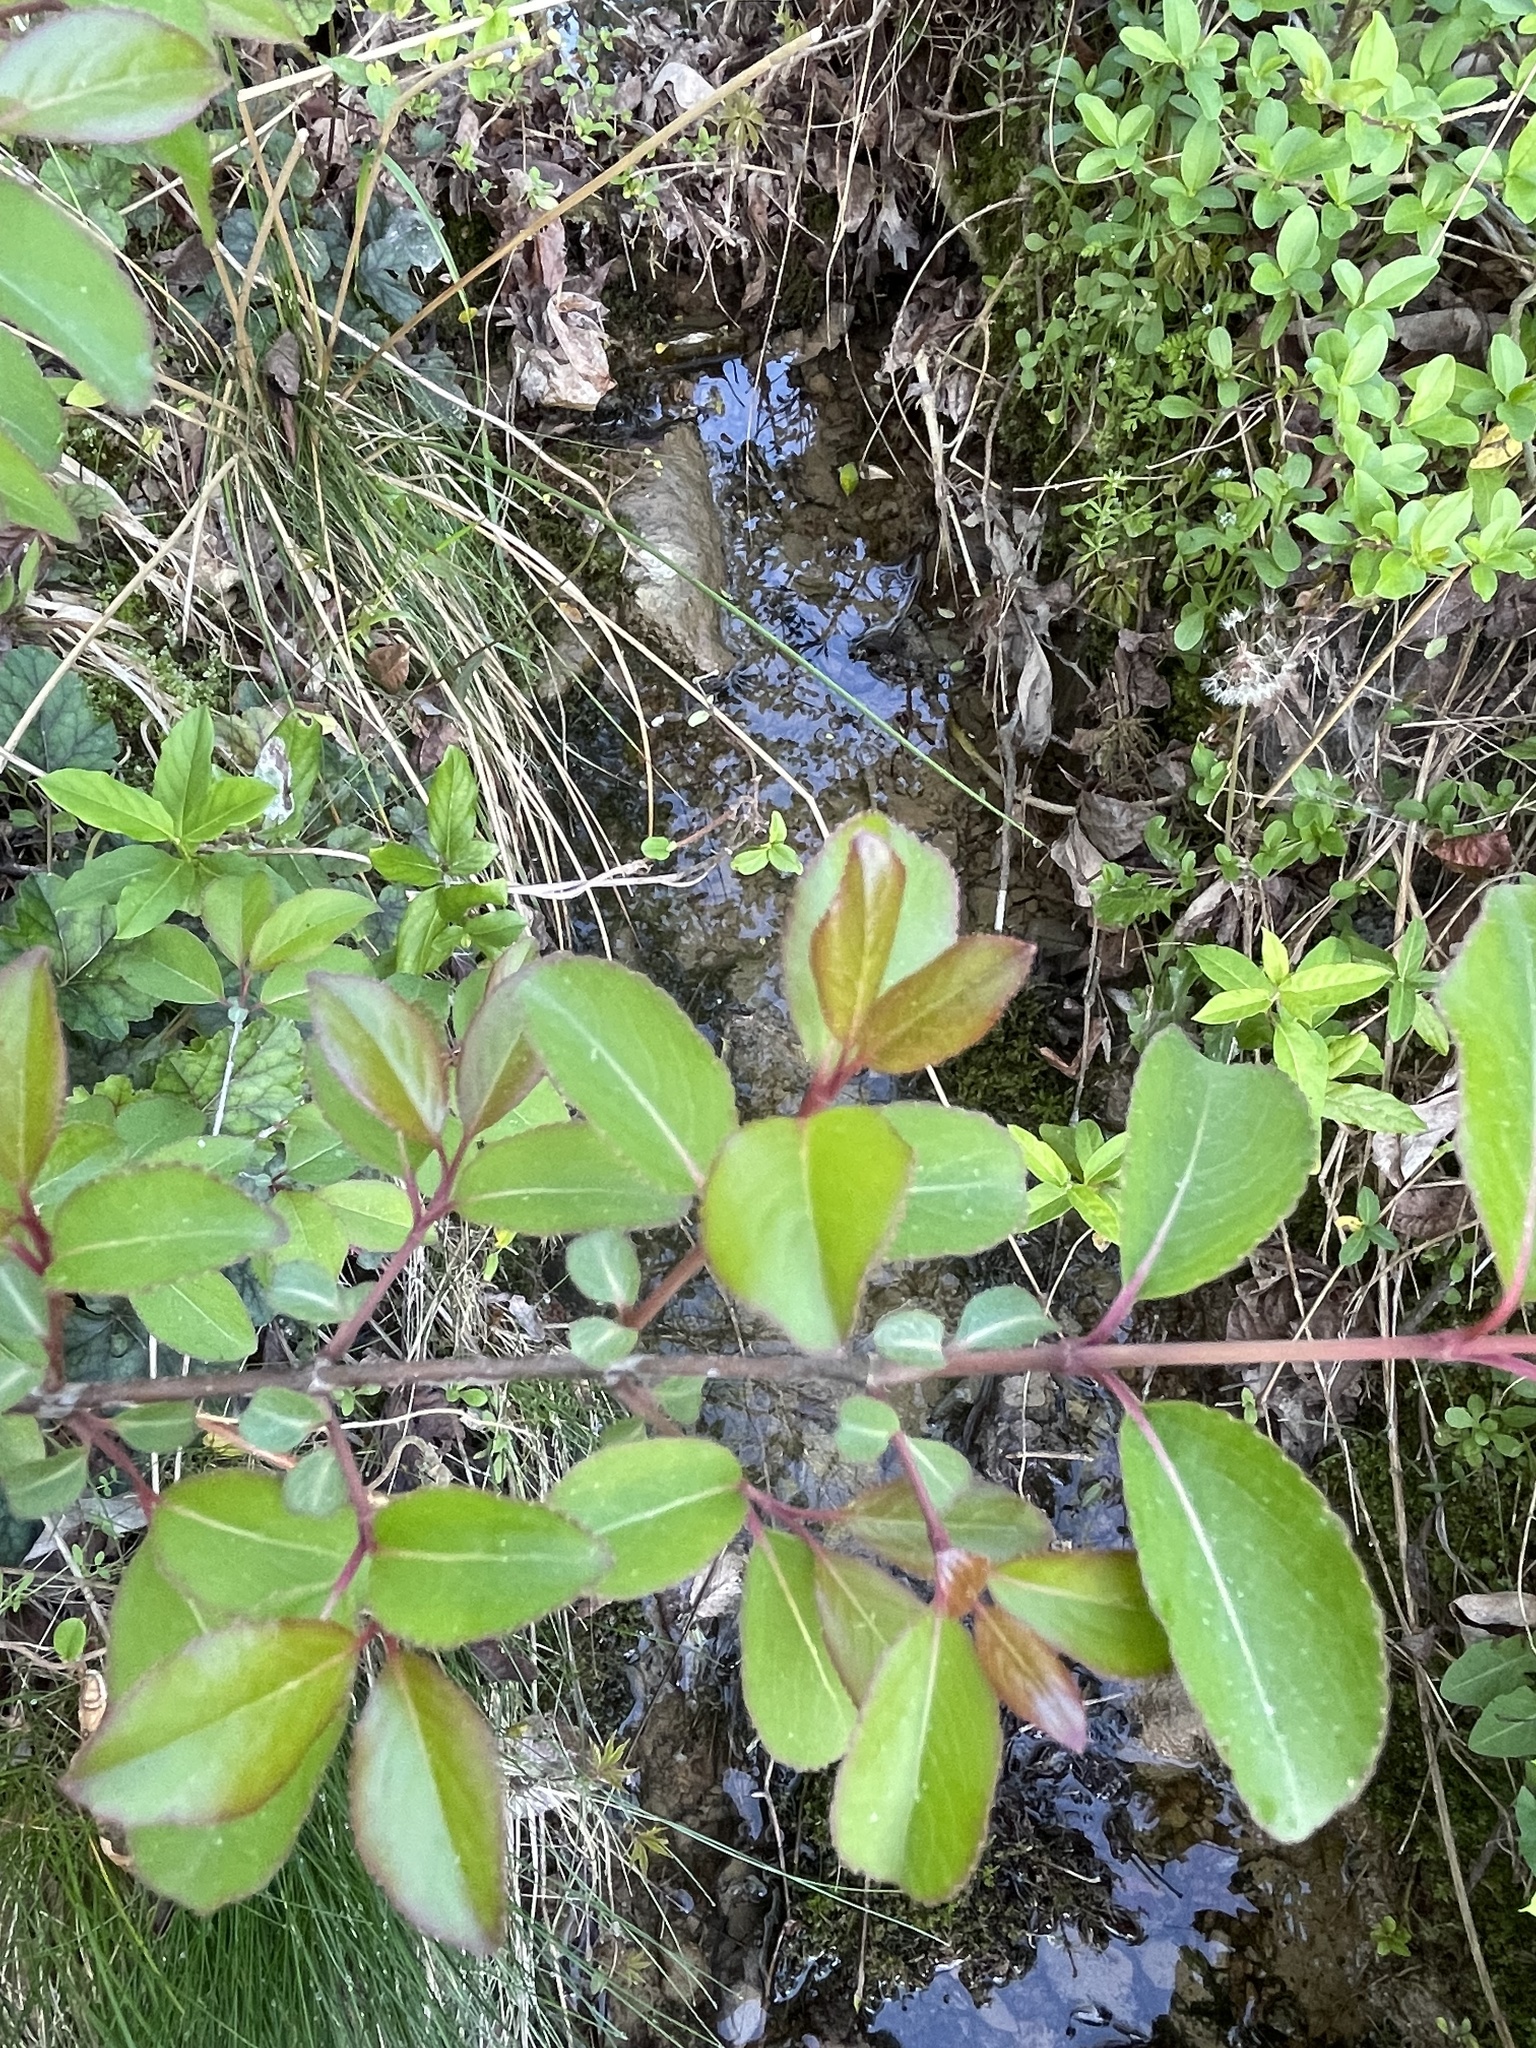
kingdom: Plantae
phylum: Tracheophyta
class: Magnoliopsida
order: Dipsacales
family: Viburnaceae
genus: Viburnum
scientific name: Viburnum prunifolium
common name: Black haw
